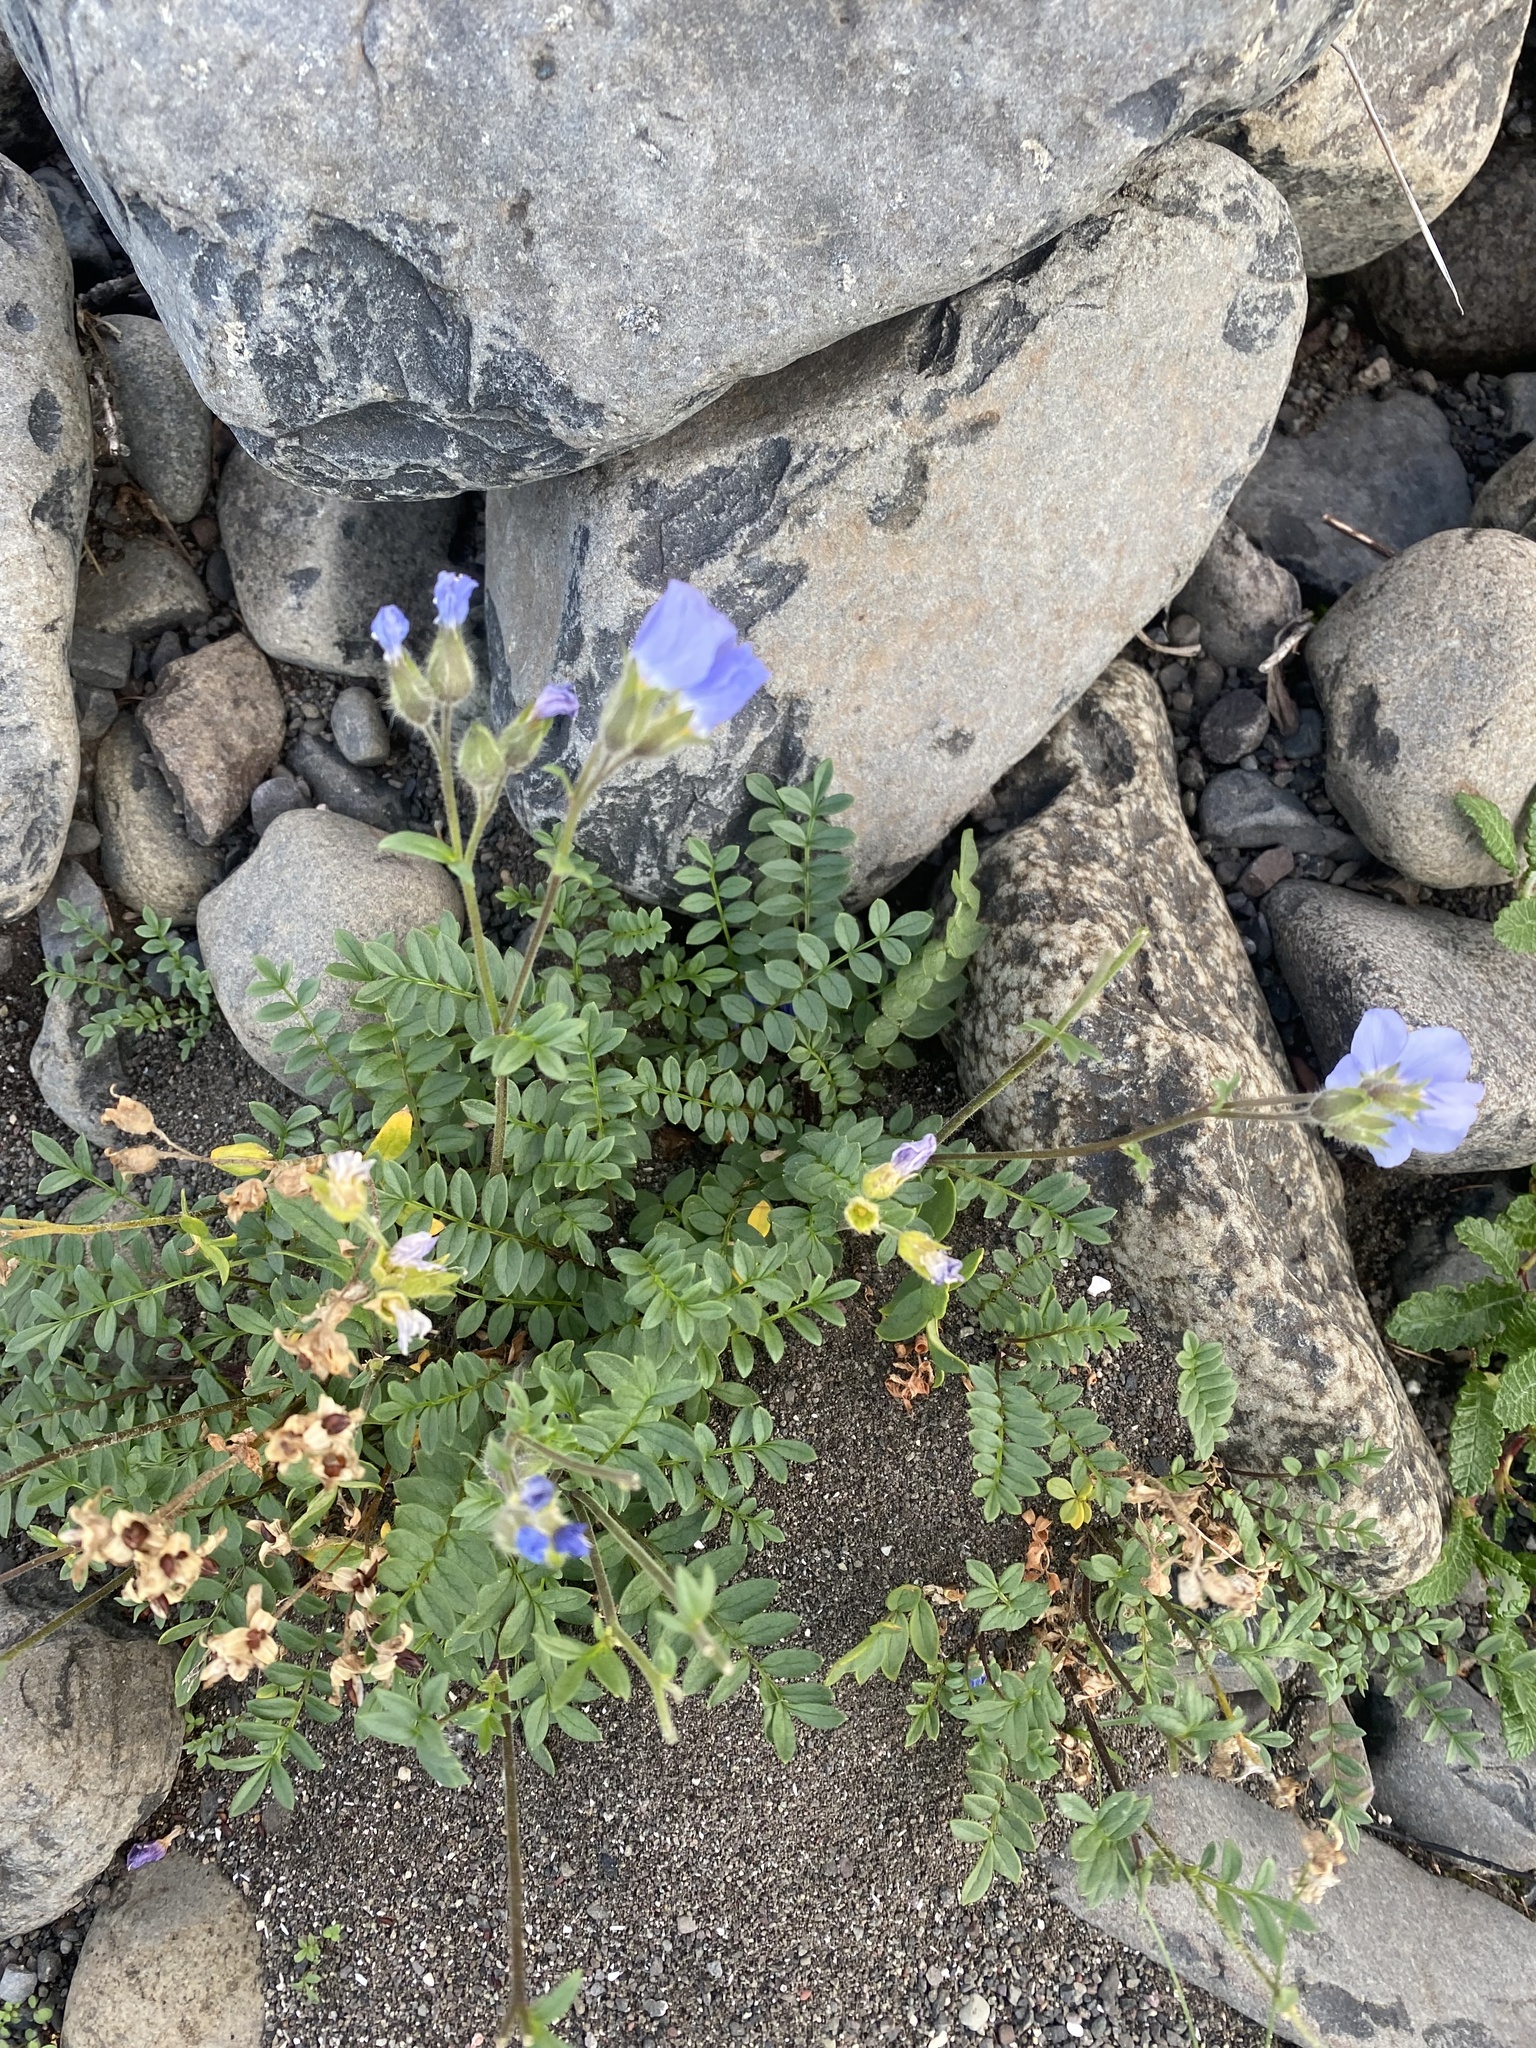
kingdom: Plantae
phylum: Tracheophyta
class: Magnoliopsida
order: Ericales
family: Polemoniaceae
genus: Polemonium
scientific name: Polemonium boreale
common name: Boreal jacob's-ladder
